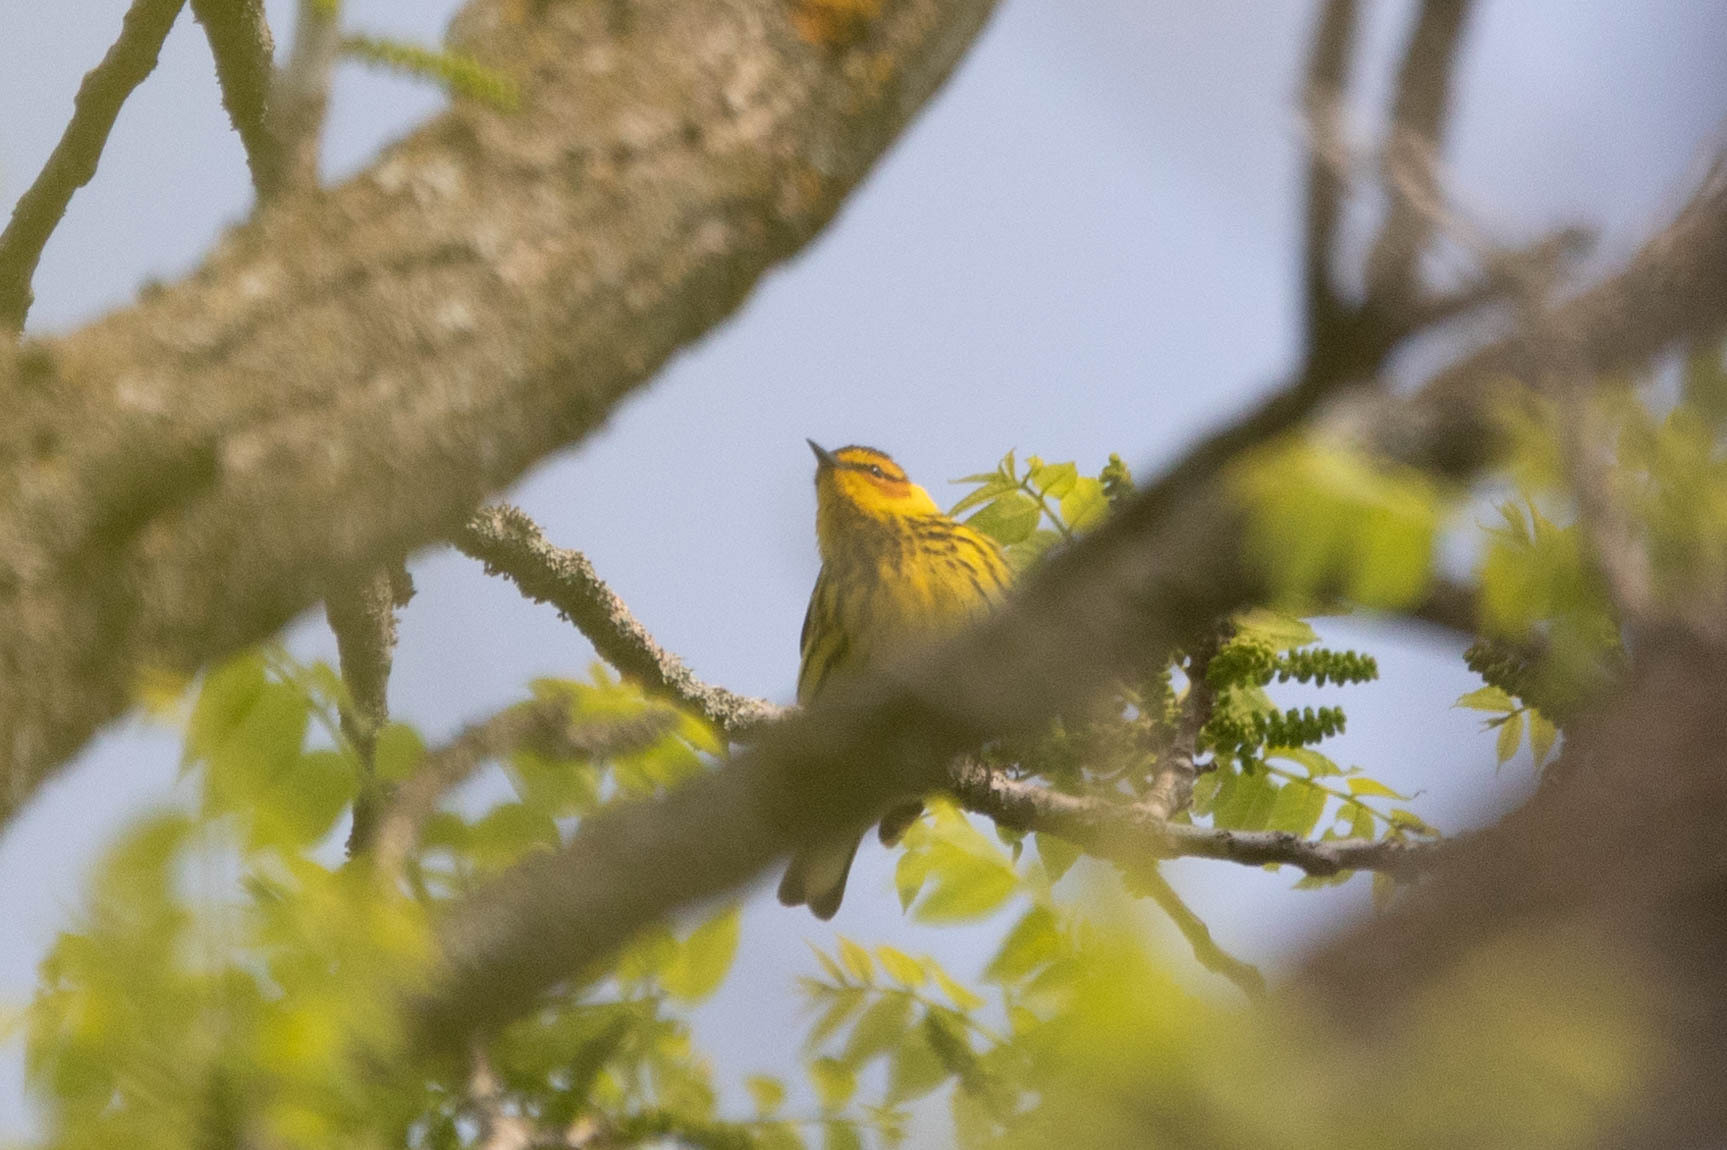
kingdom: Animalia
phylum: Chordata
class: Aves
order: Passeriformes
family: Parulidae
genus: Setophaga
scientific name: Setophaga tigrina
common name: Cape may warbler
